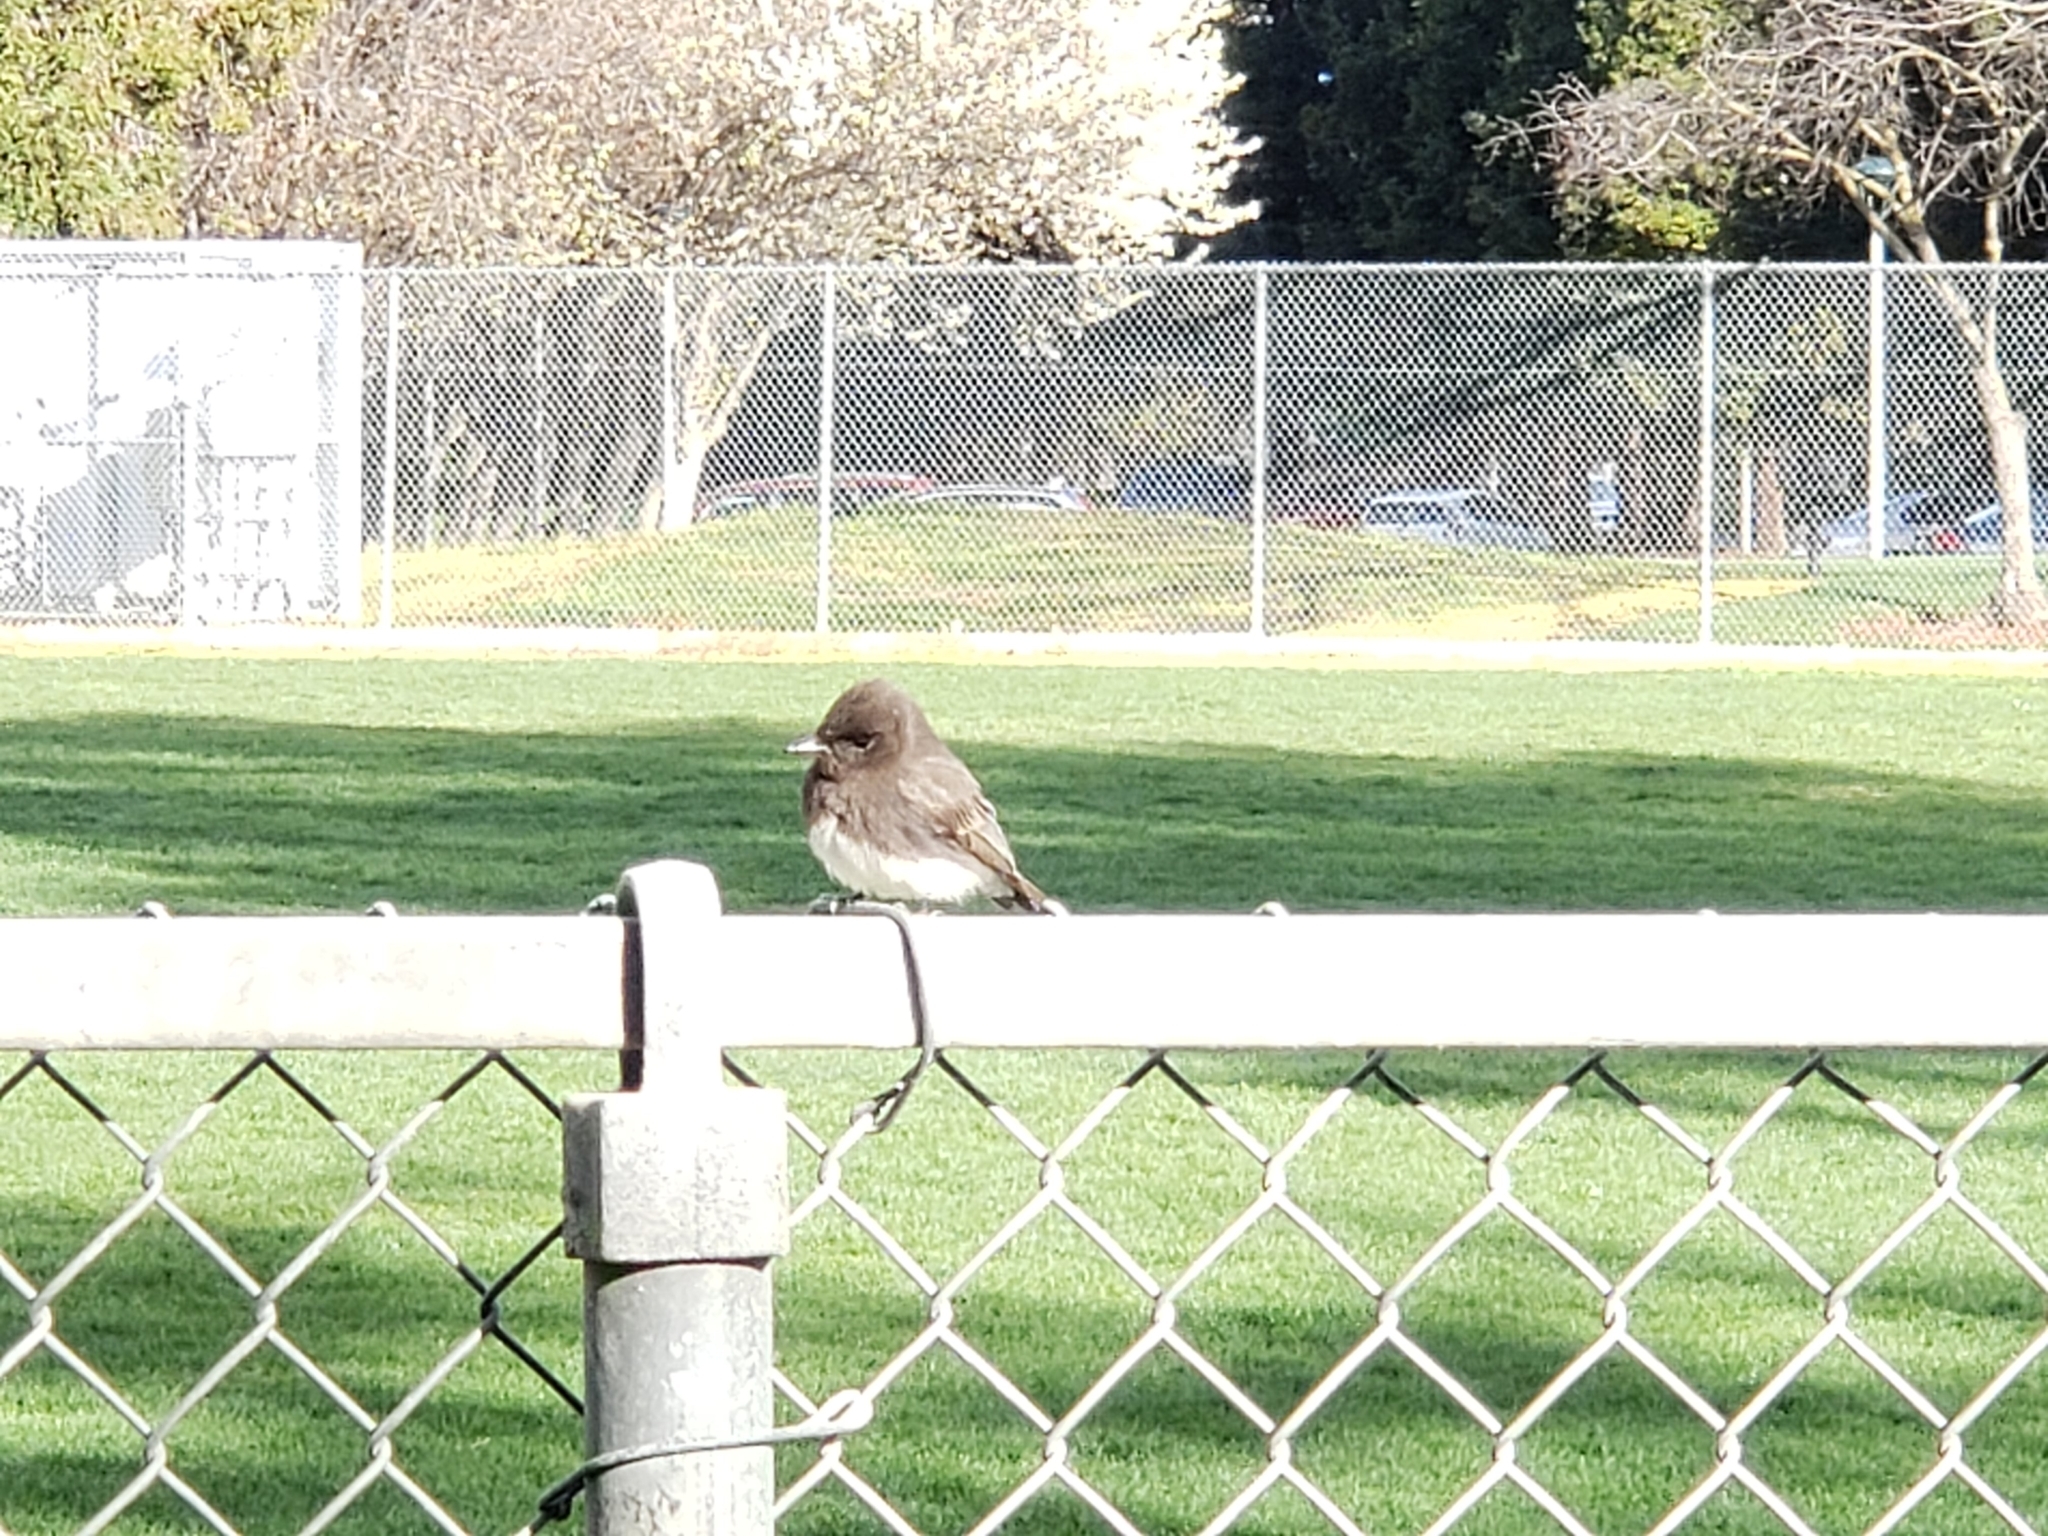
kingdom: Animalia
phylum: Chordata
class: Aves
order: Passeriformes
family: Tyrannidae
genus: Sayornis
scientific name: Sayornis nigricans
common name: Black phoebe
